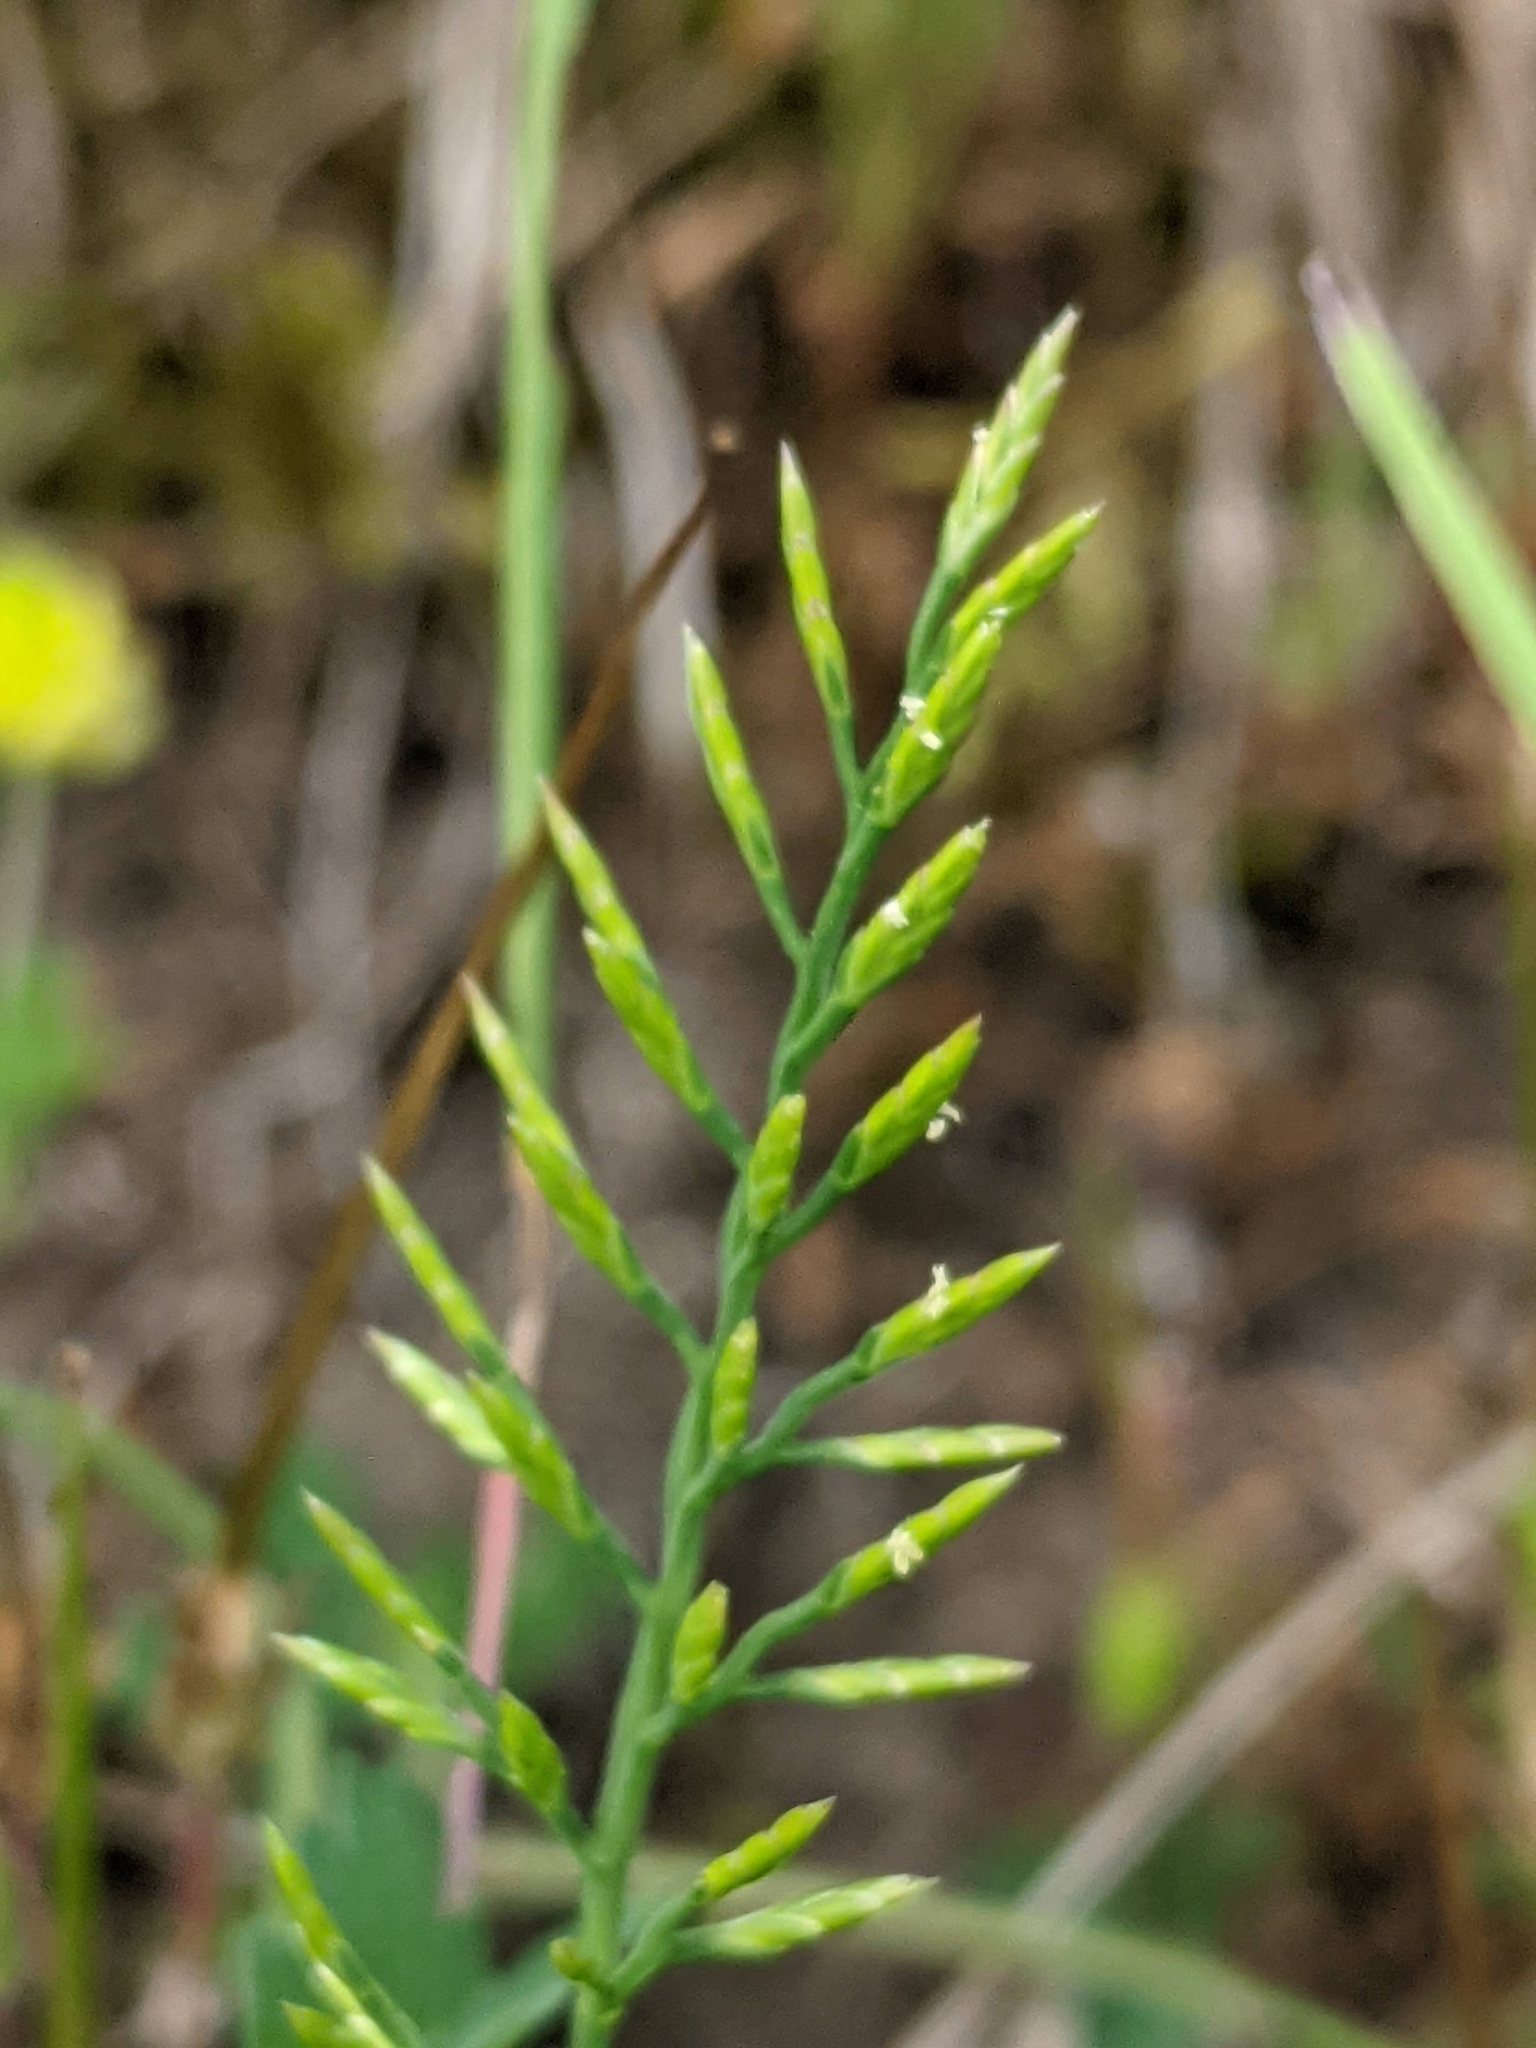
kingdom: Plantae
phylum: Tracheophyta
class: Liliopsida
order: Poales
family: Poaceae
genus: Catapodium
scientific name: Catapodium rigidum
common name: Fern-grass
